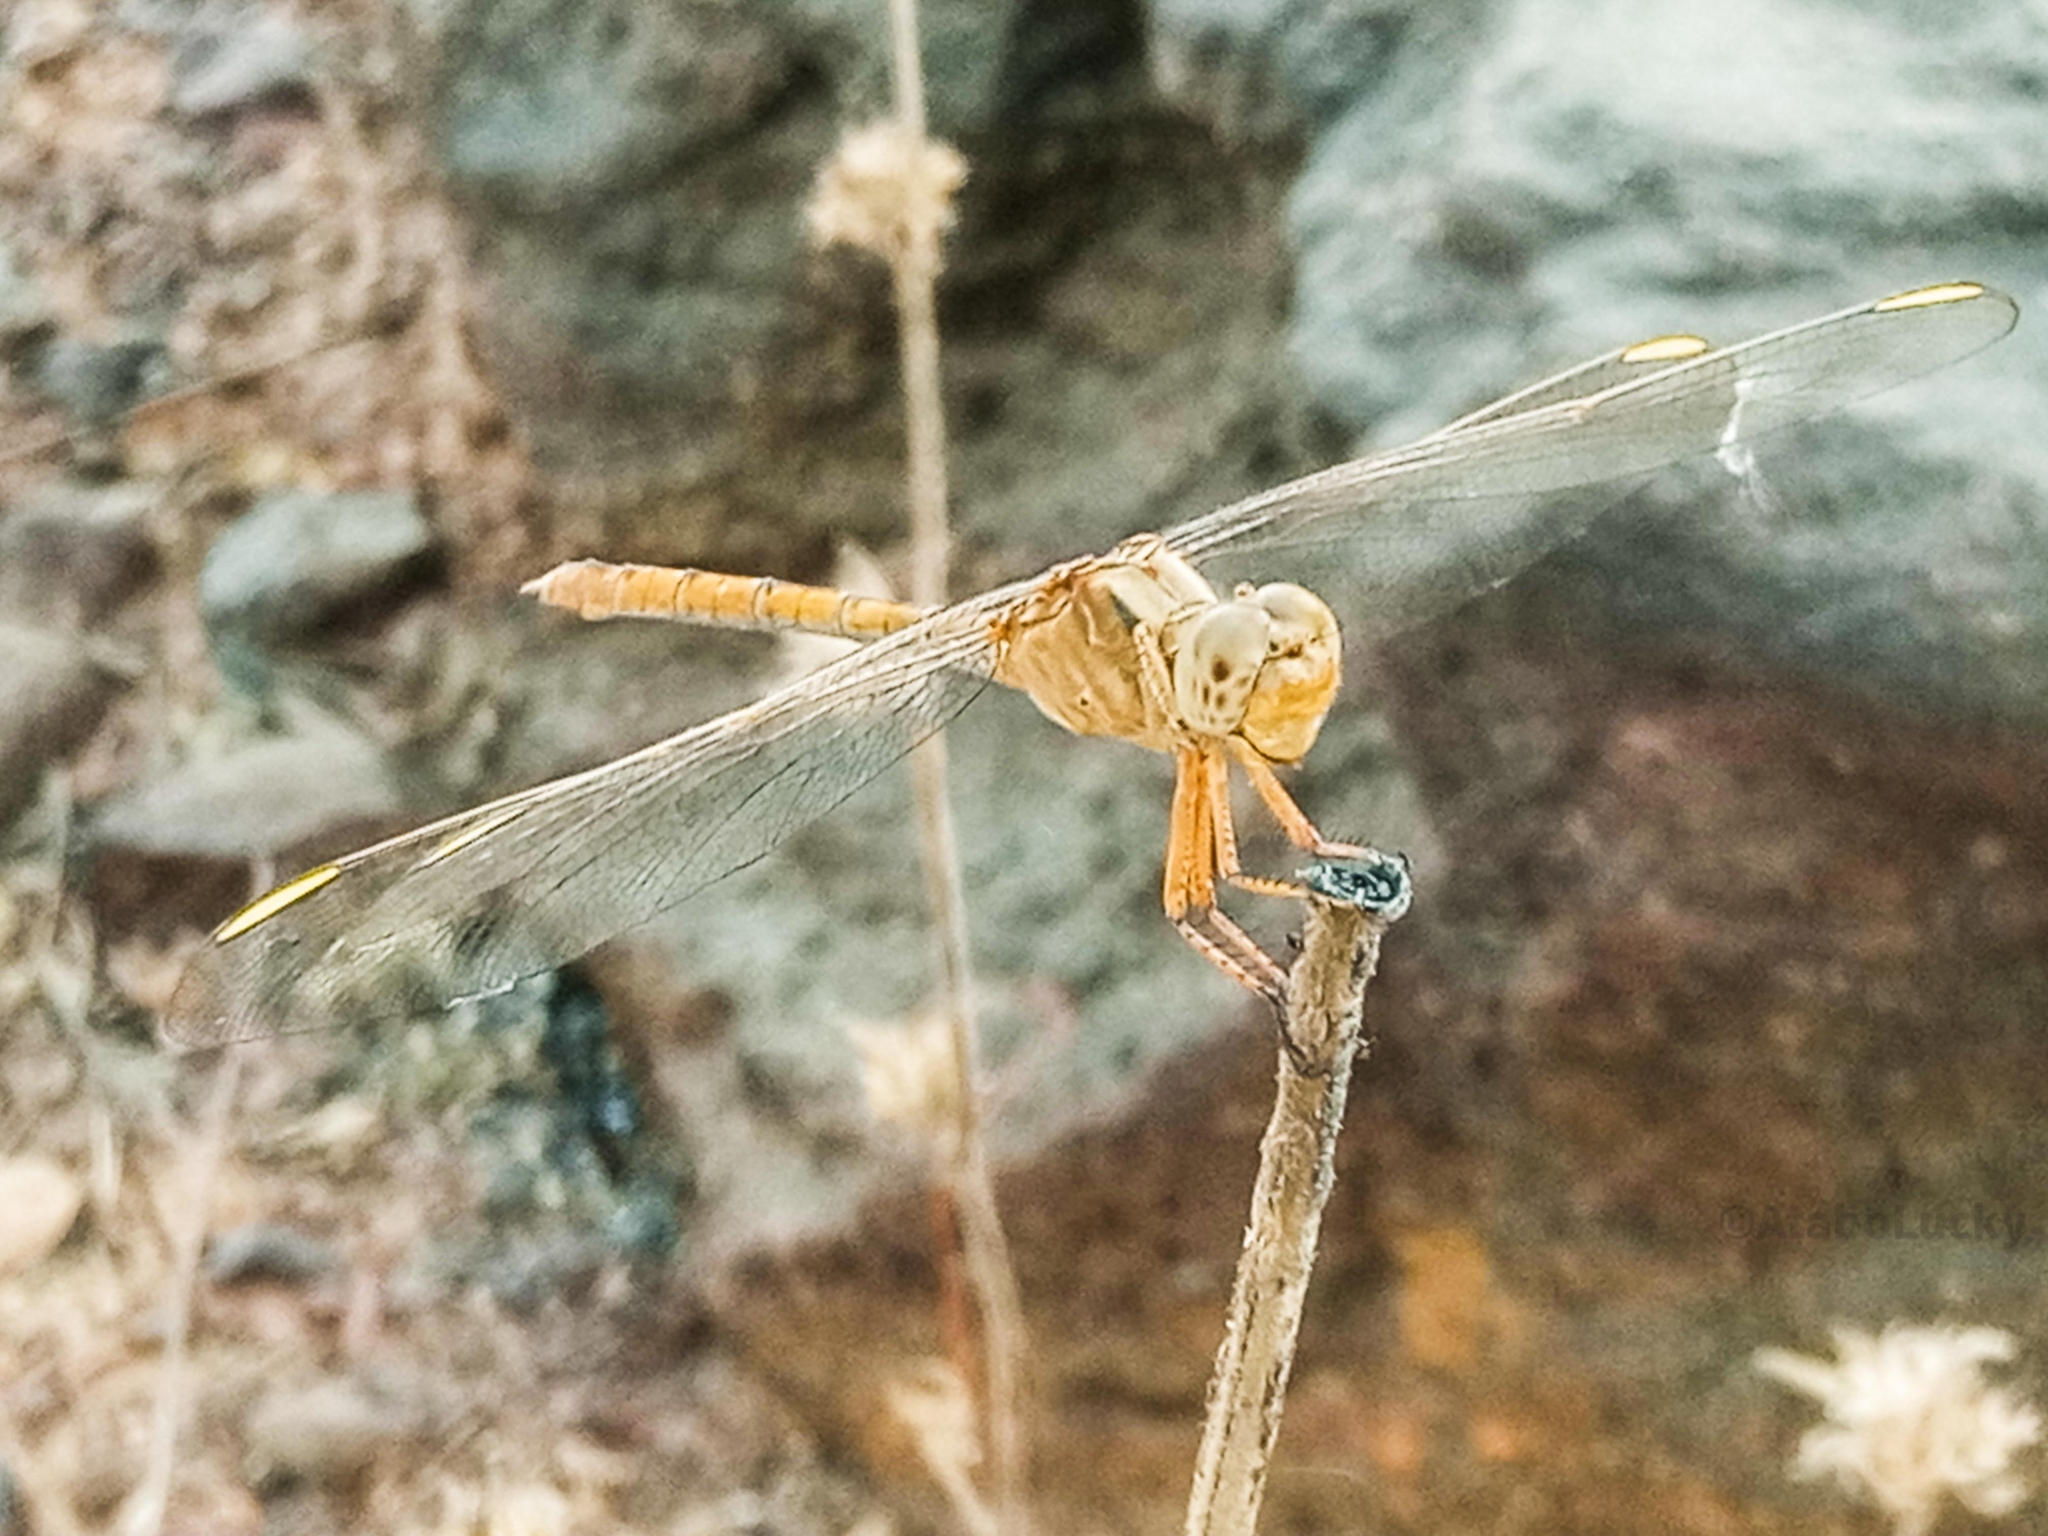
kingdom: Animalia
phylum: Arthropoda
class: Insecta
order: Odonata
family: Libellulidae
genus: Orthetrum
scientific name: Orthetrum angustiventre
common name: Many-celled skimmer
